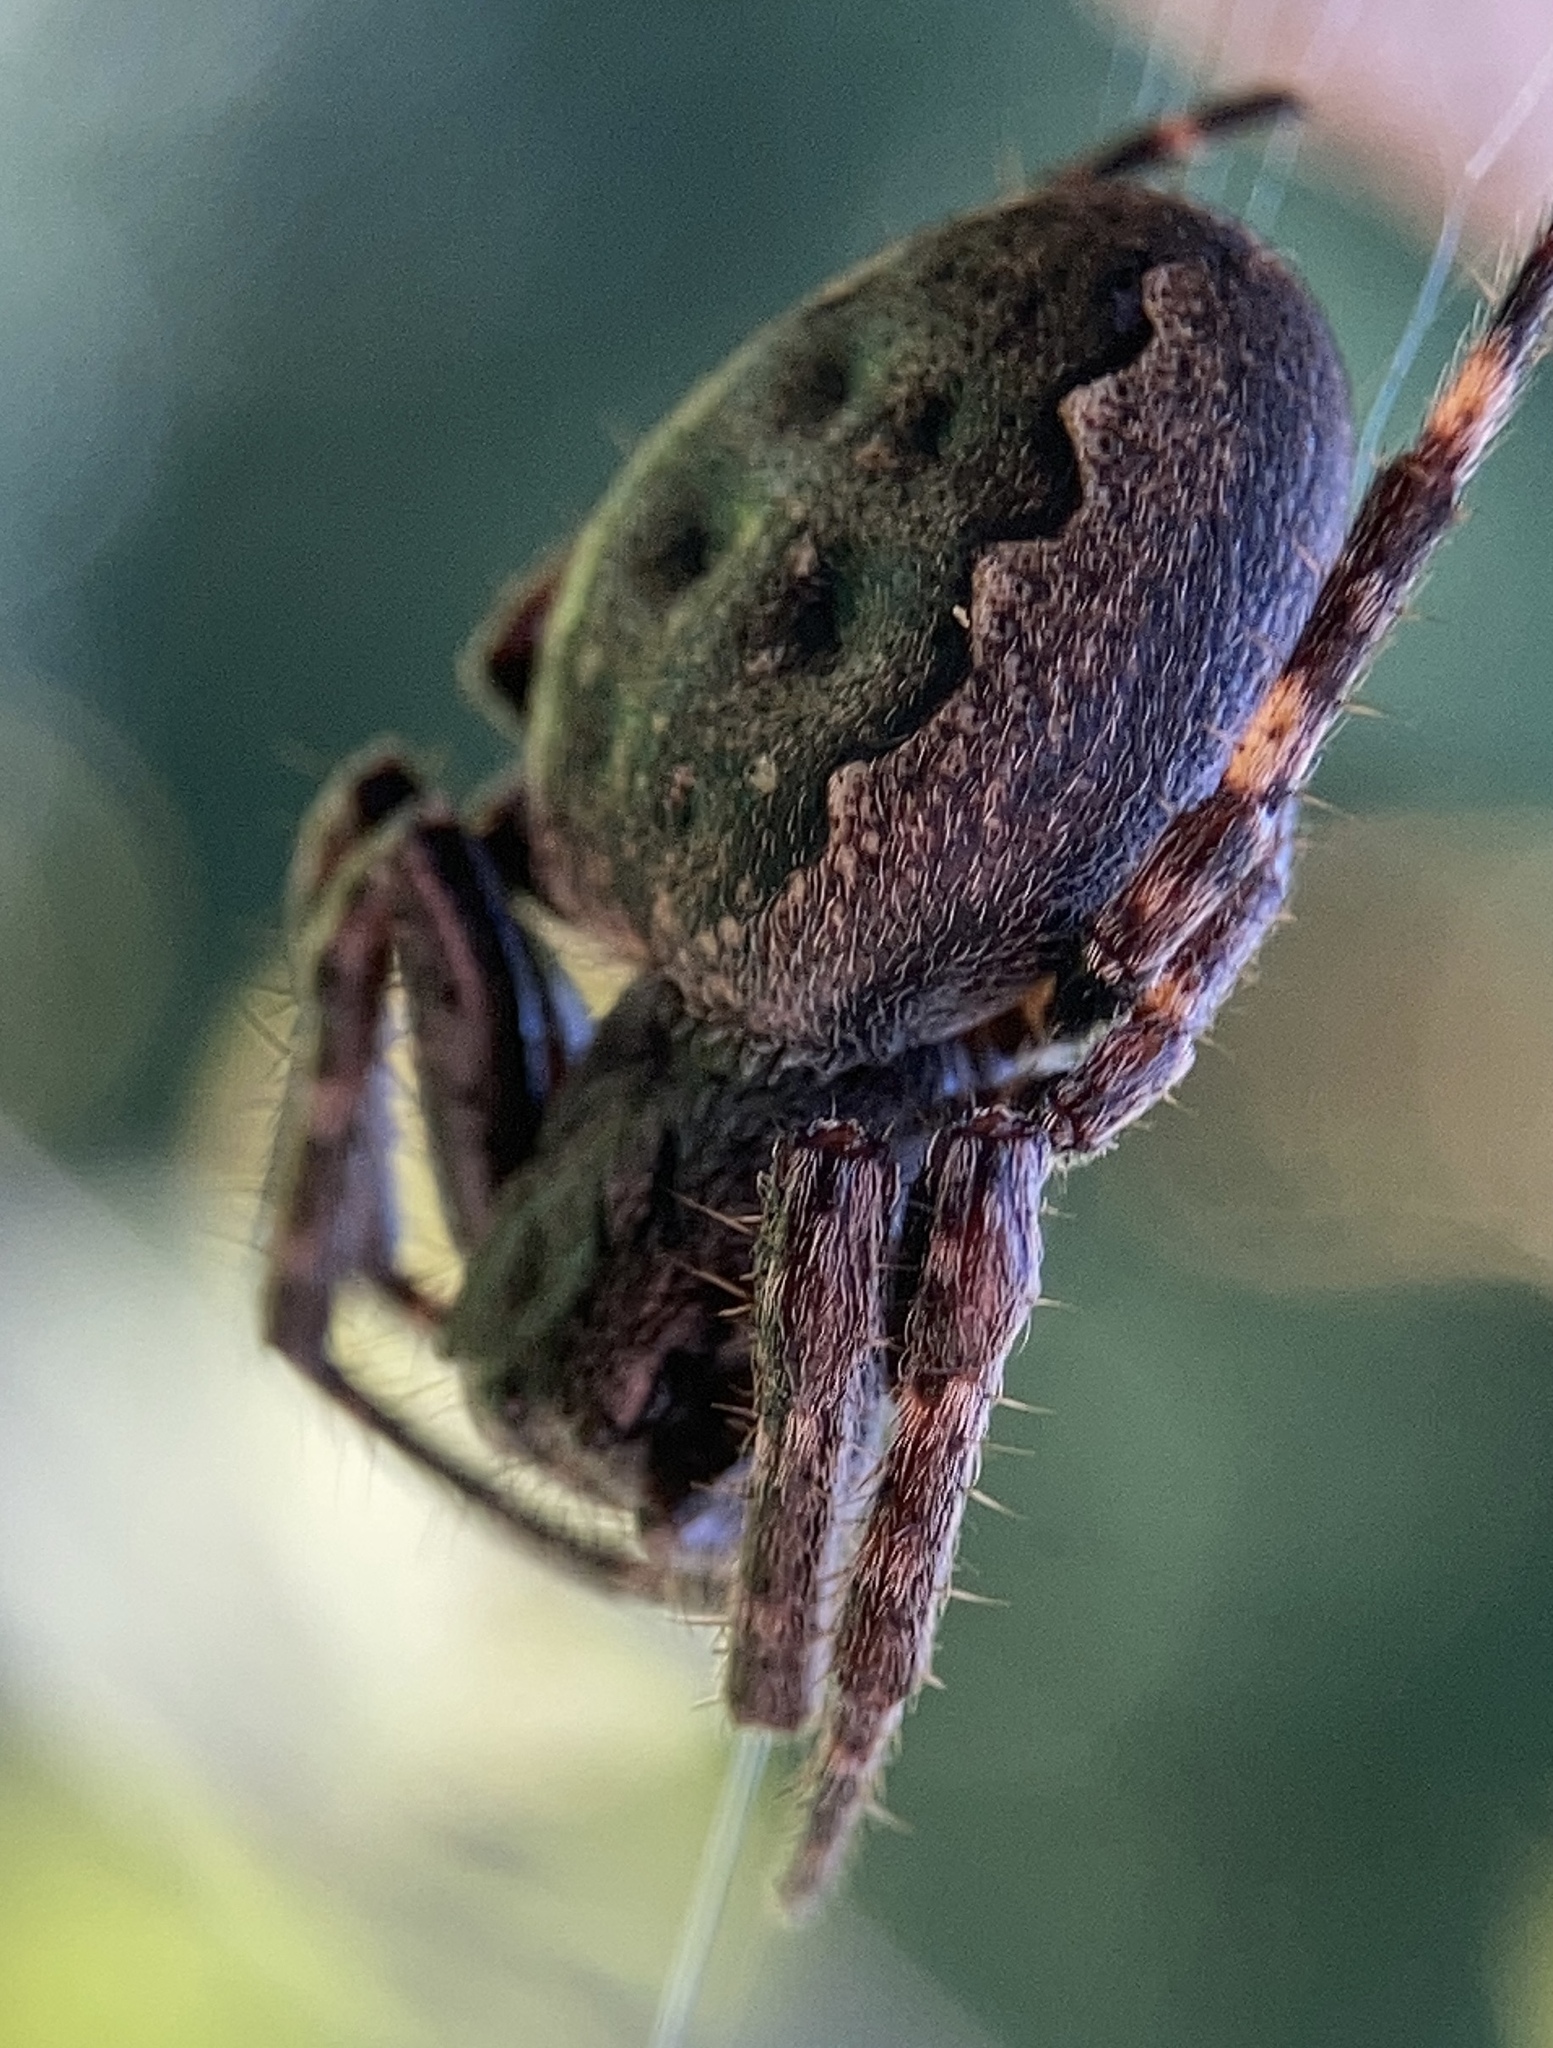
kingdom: Animalia
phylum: Arthropoda
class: Arachnida
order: Araneae
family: Araneidae
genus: Nuctenea
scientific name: Nuctenea umbratica
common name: Toad spider
